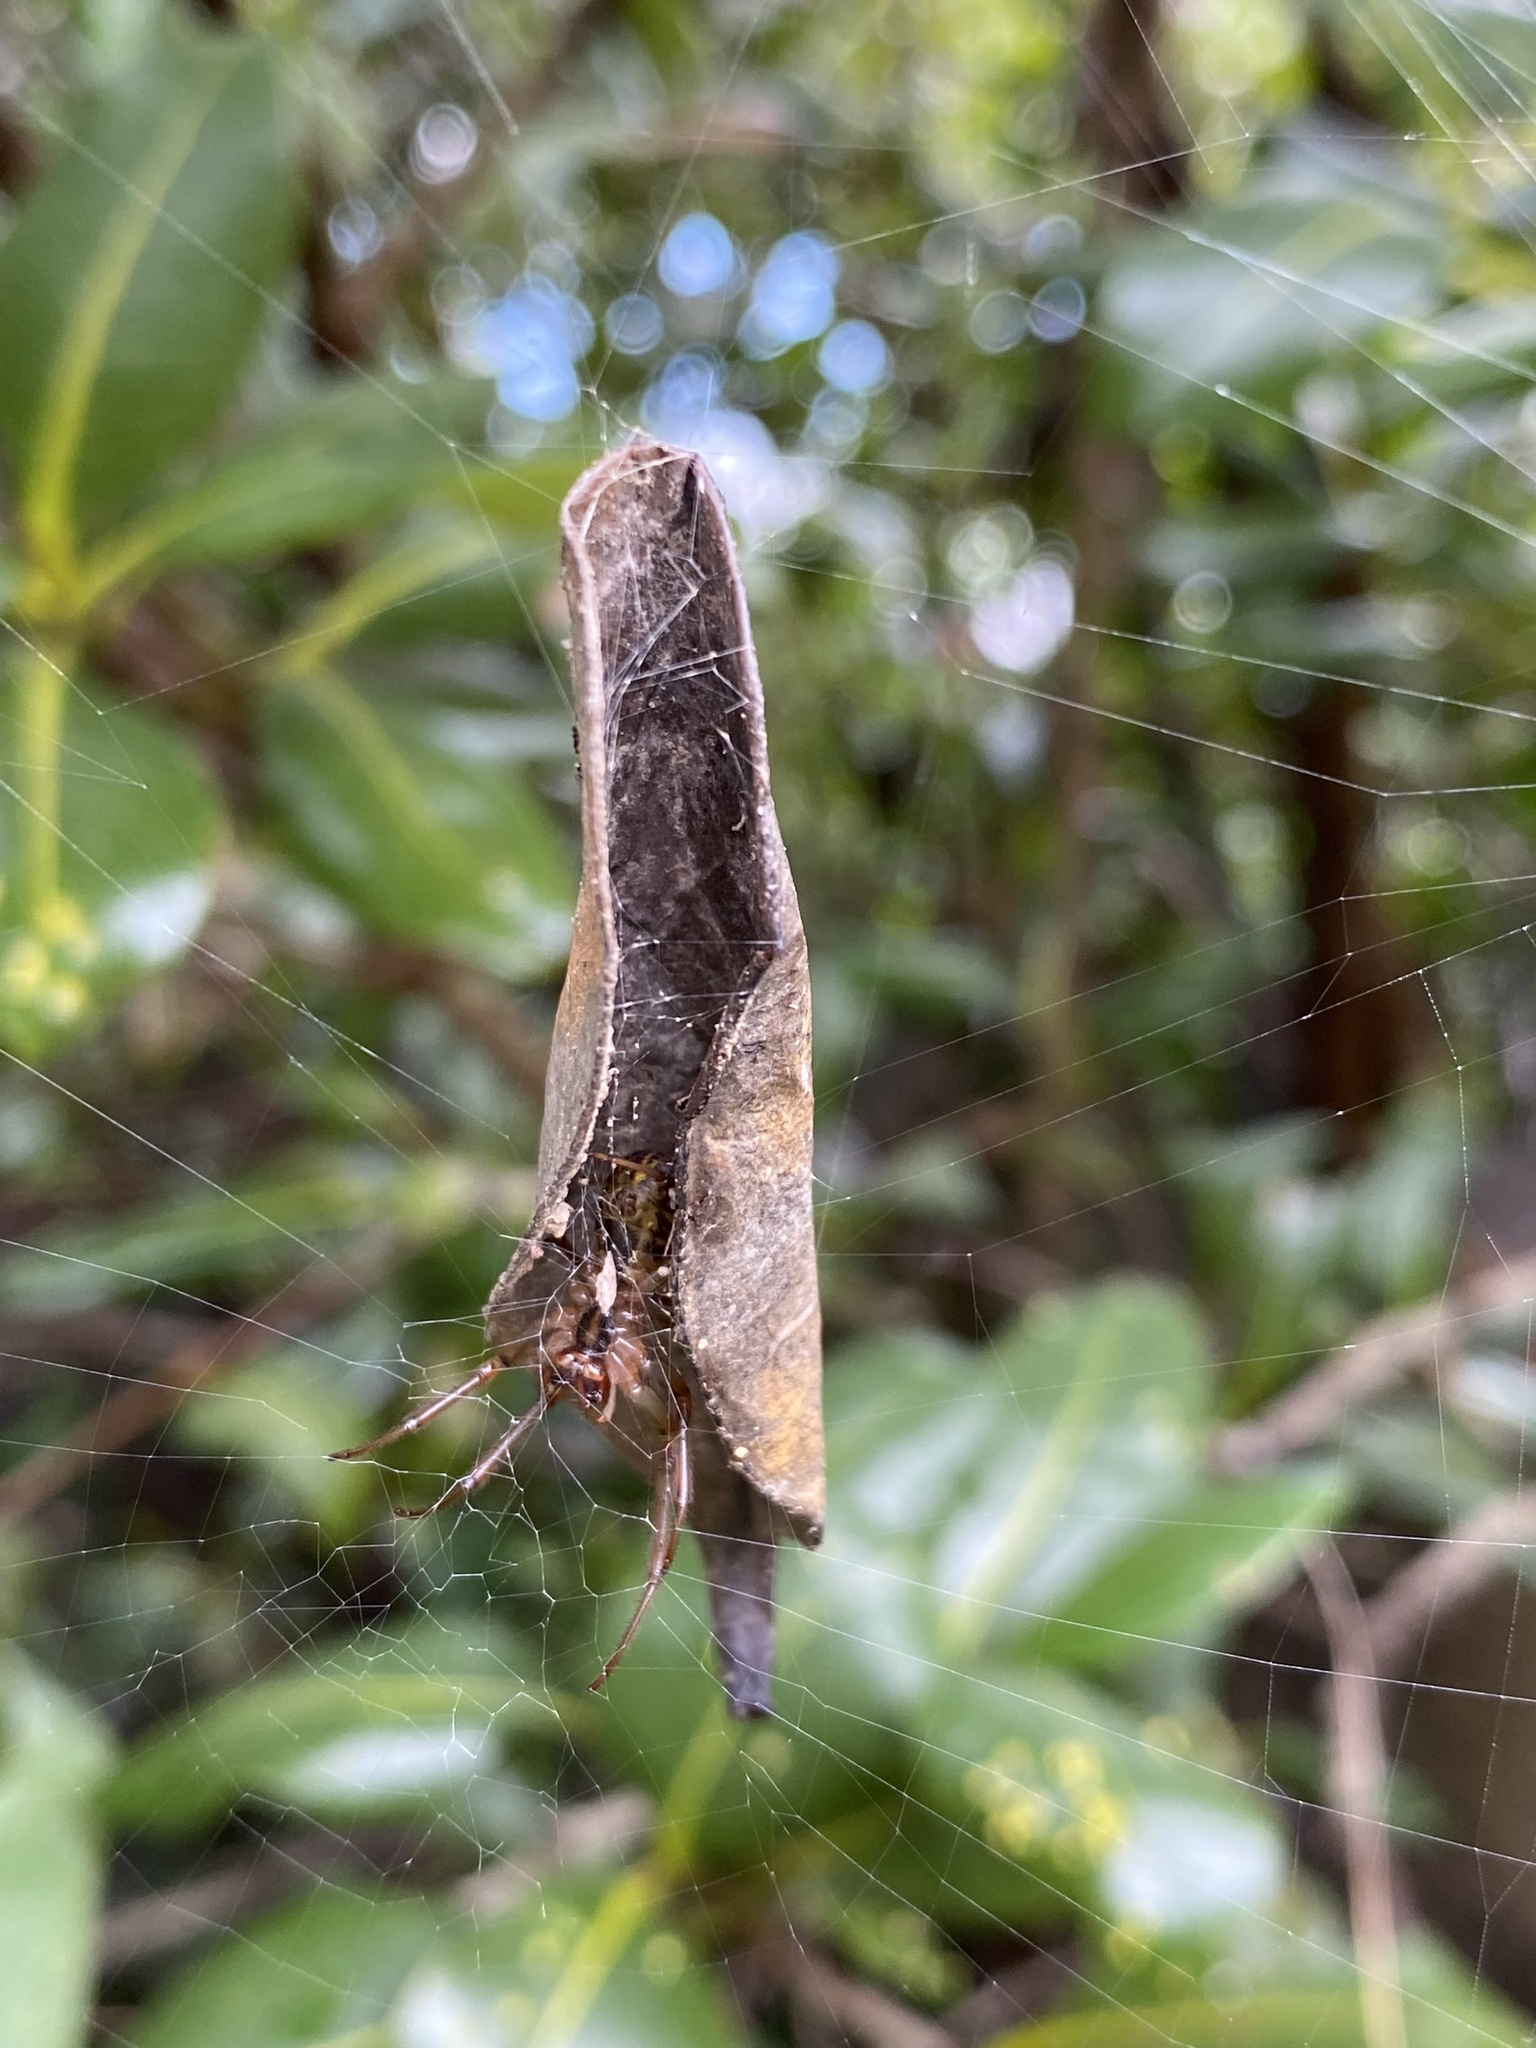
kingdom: Animalia
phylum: Arthropoda
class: Arachnida
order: Araneae
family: Araneidae
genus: Phonognatha
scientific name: Phonognatha graeffei
